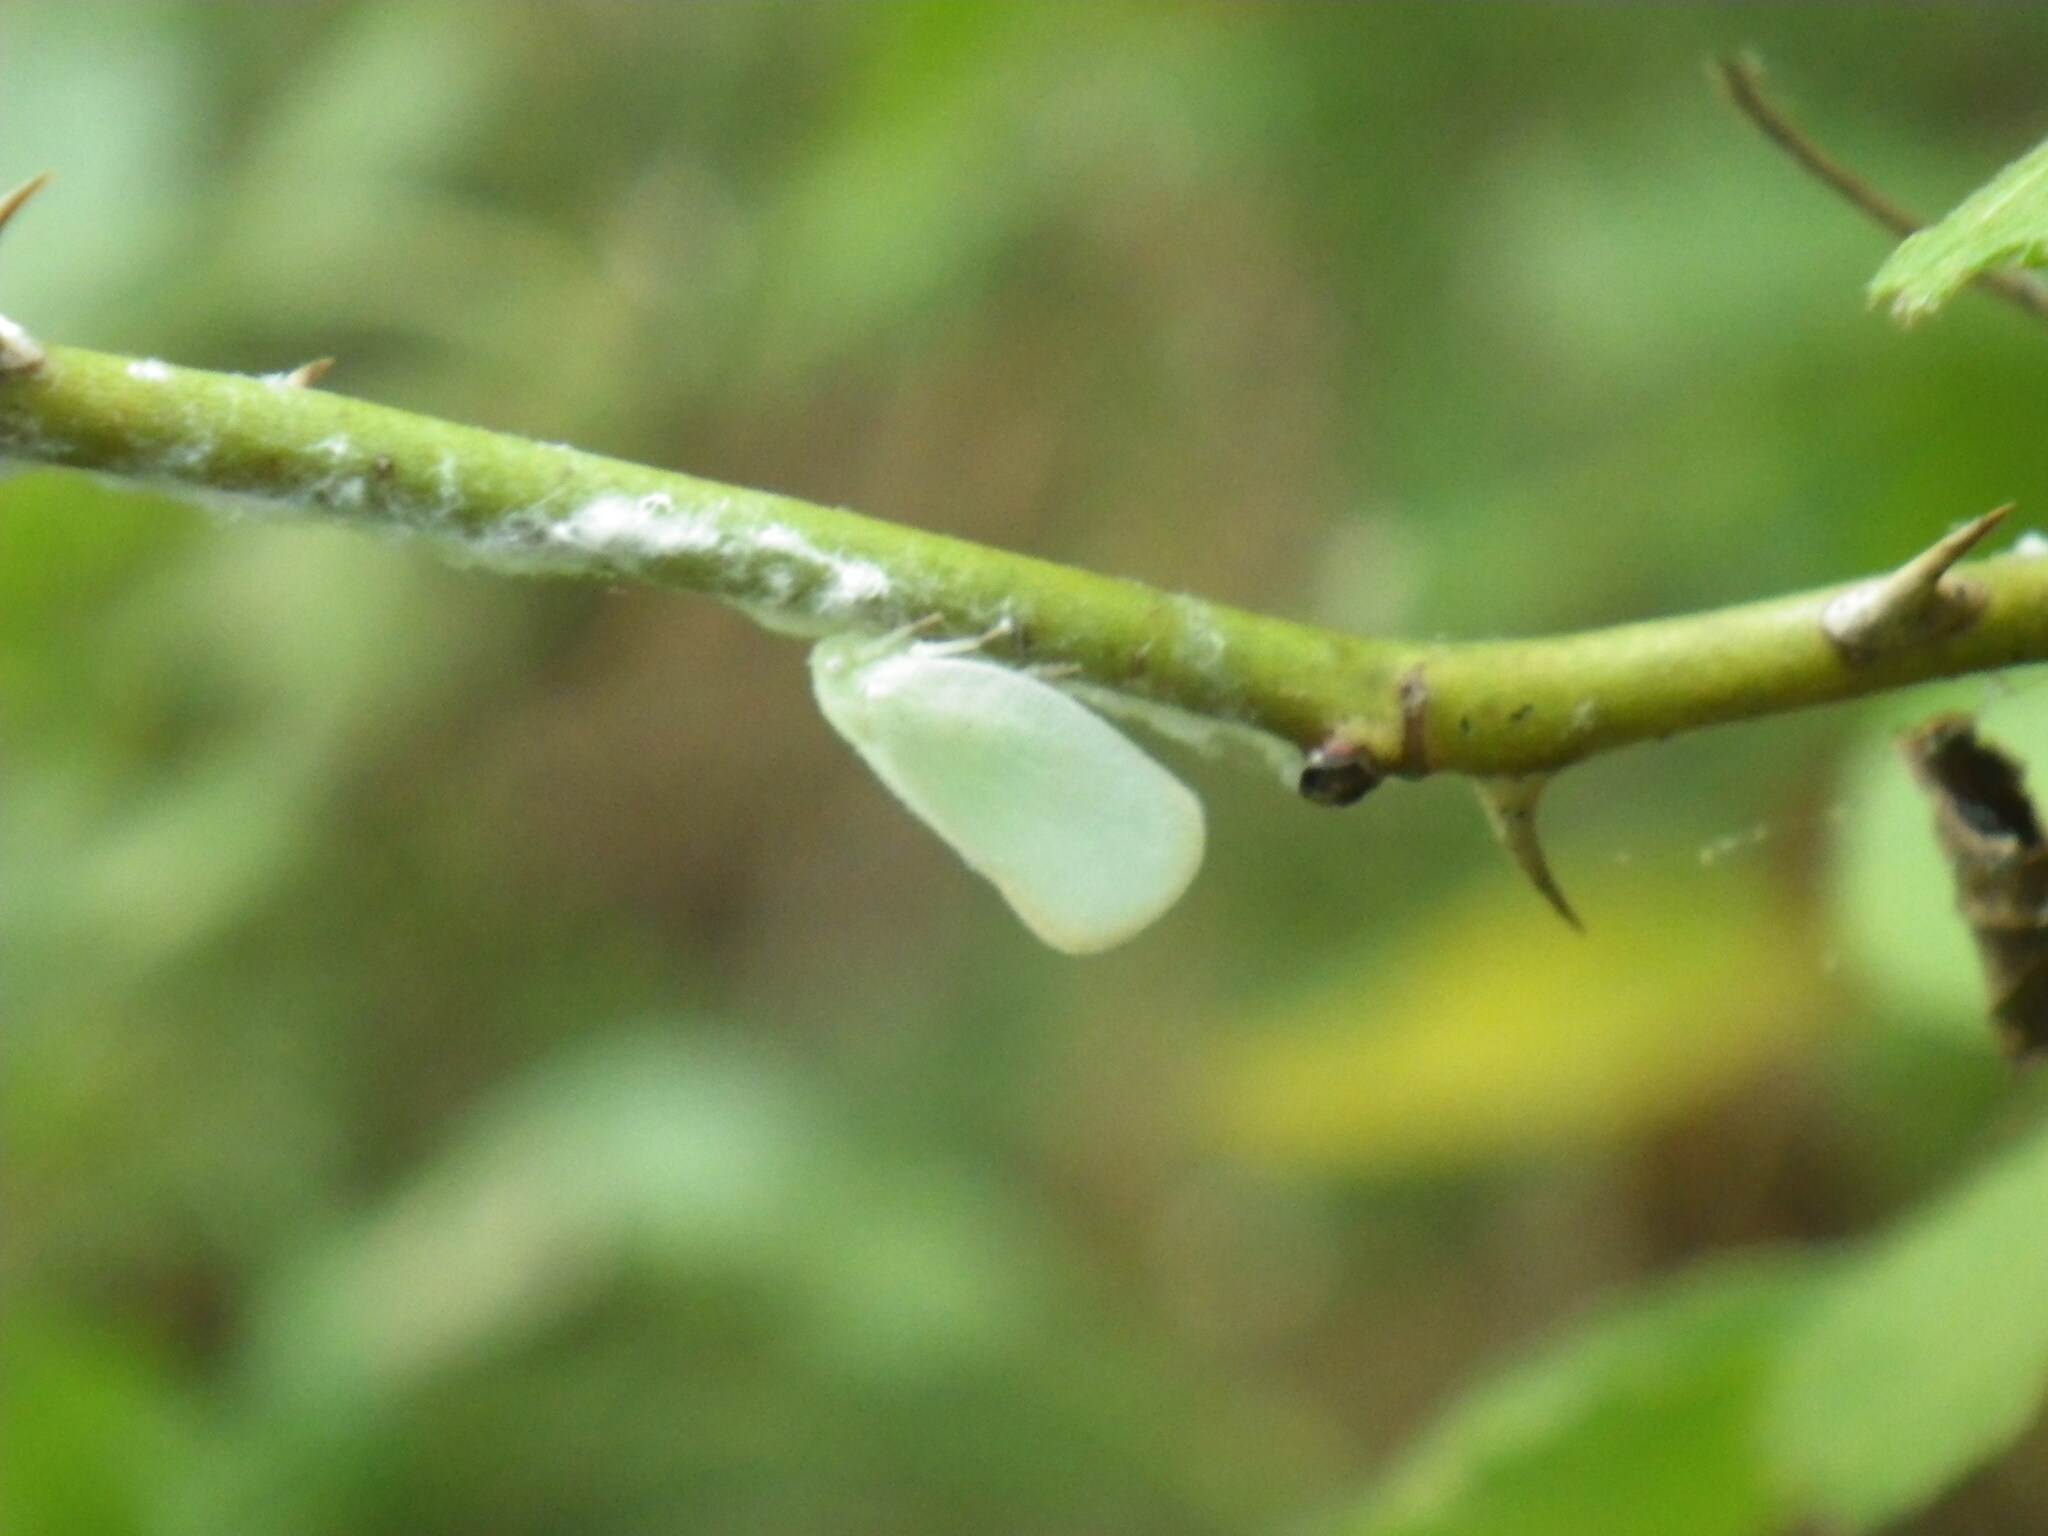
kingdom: Animalia
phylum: Arthropoda
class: Insecta
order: Hemiptera
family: Flatidae
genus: Ormenoides
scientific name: Ormenoides venusta
